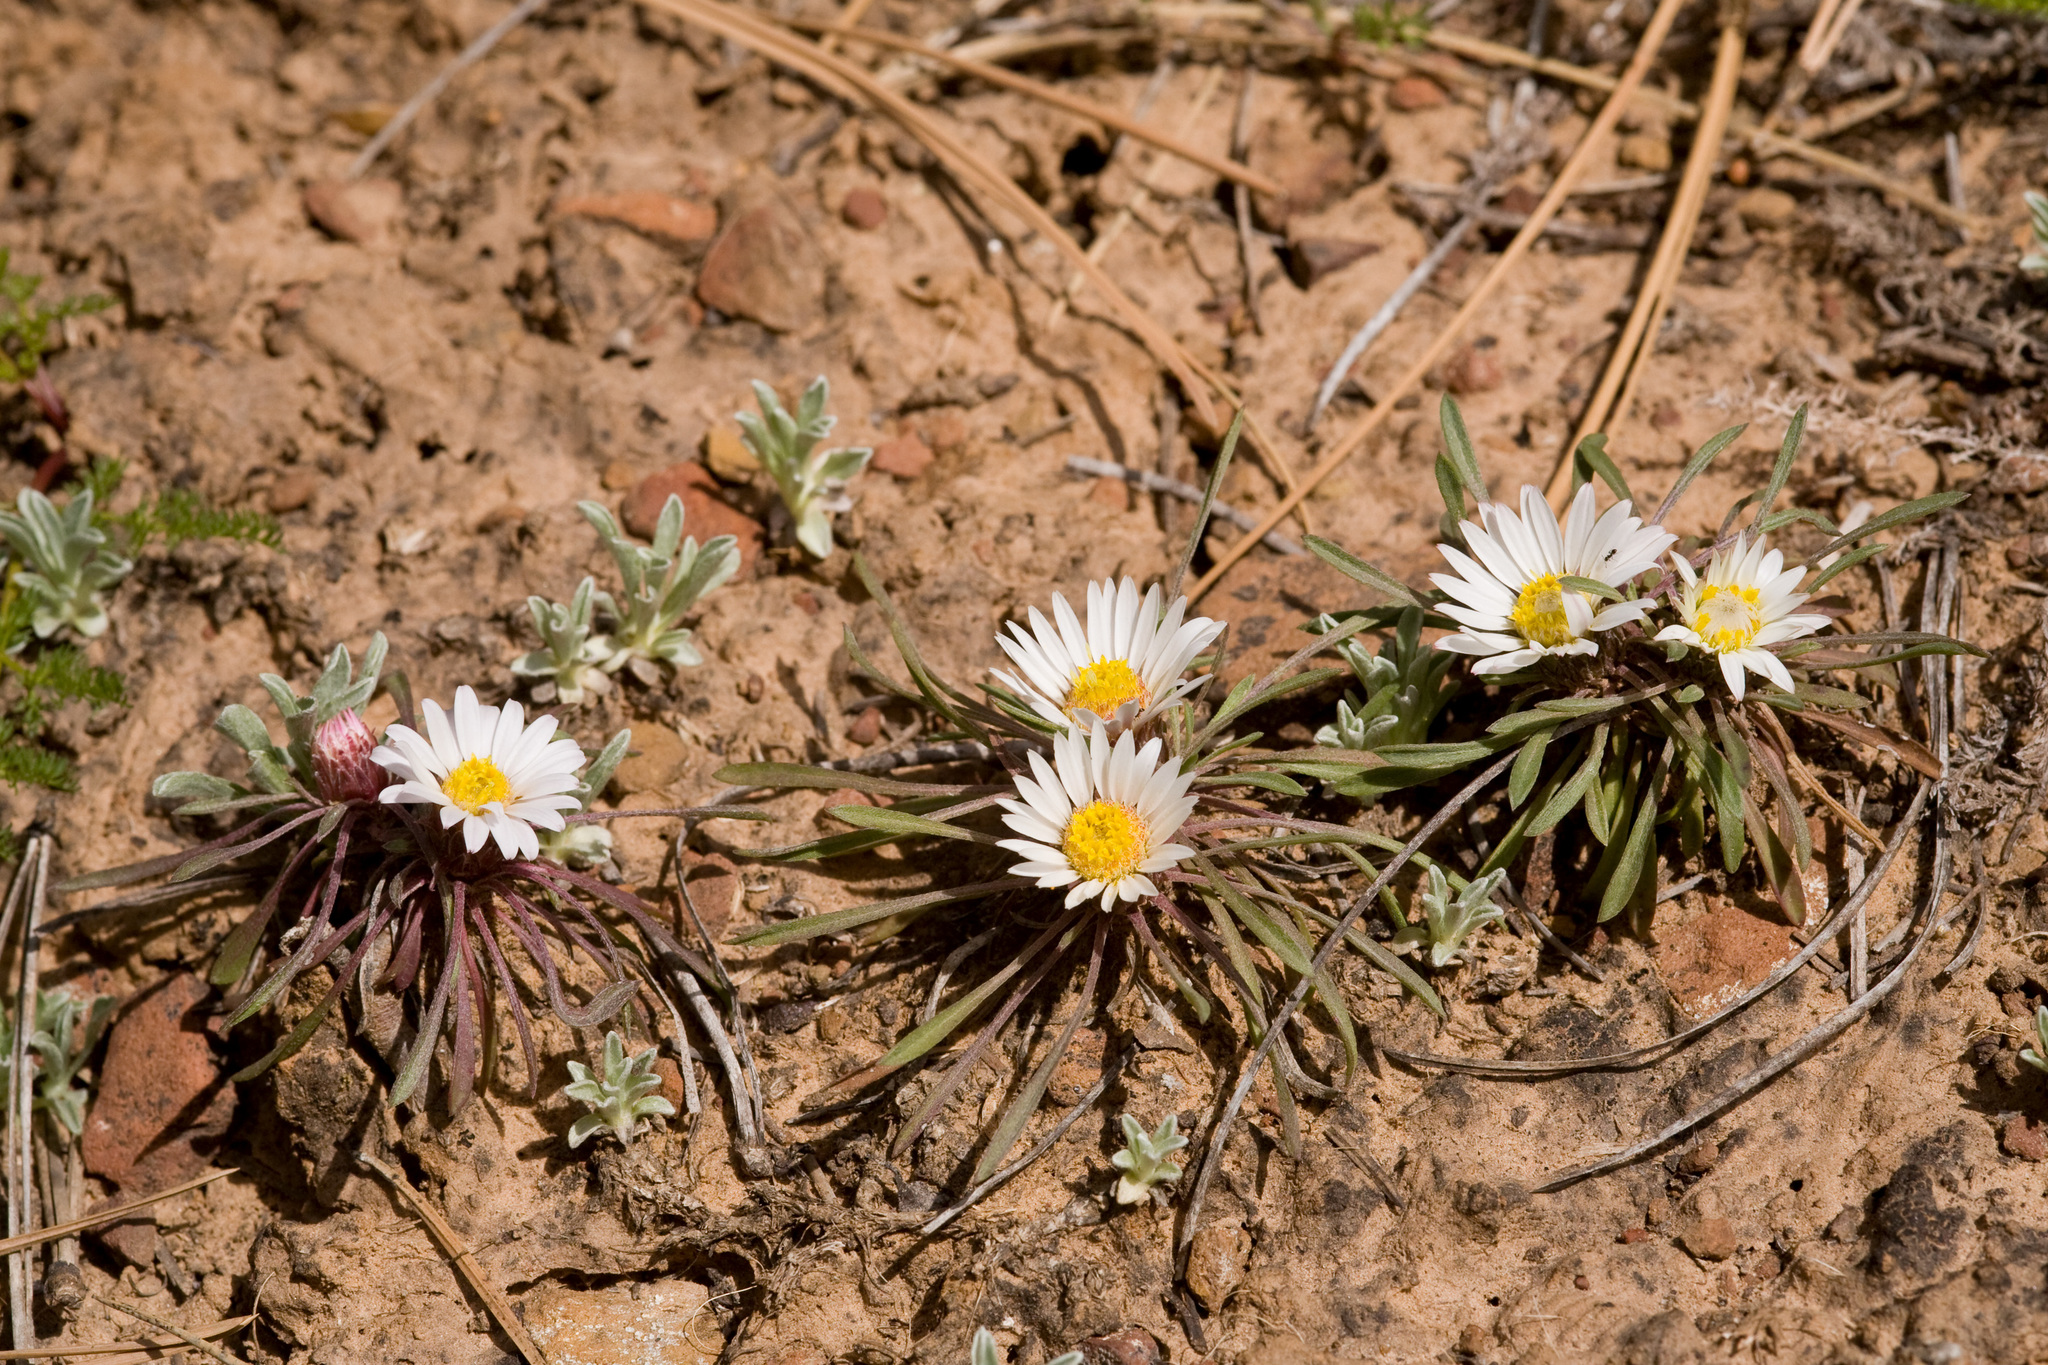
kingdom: Plantae
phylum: Tracheophyta
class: Magnoliopsida
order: Asterales
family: Asteraceae
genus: Townsendia
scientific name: Townsendia leptotes
